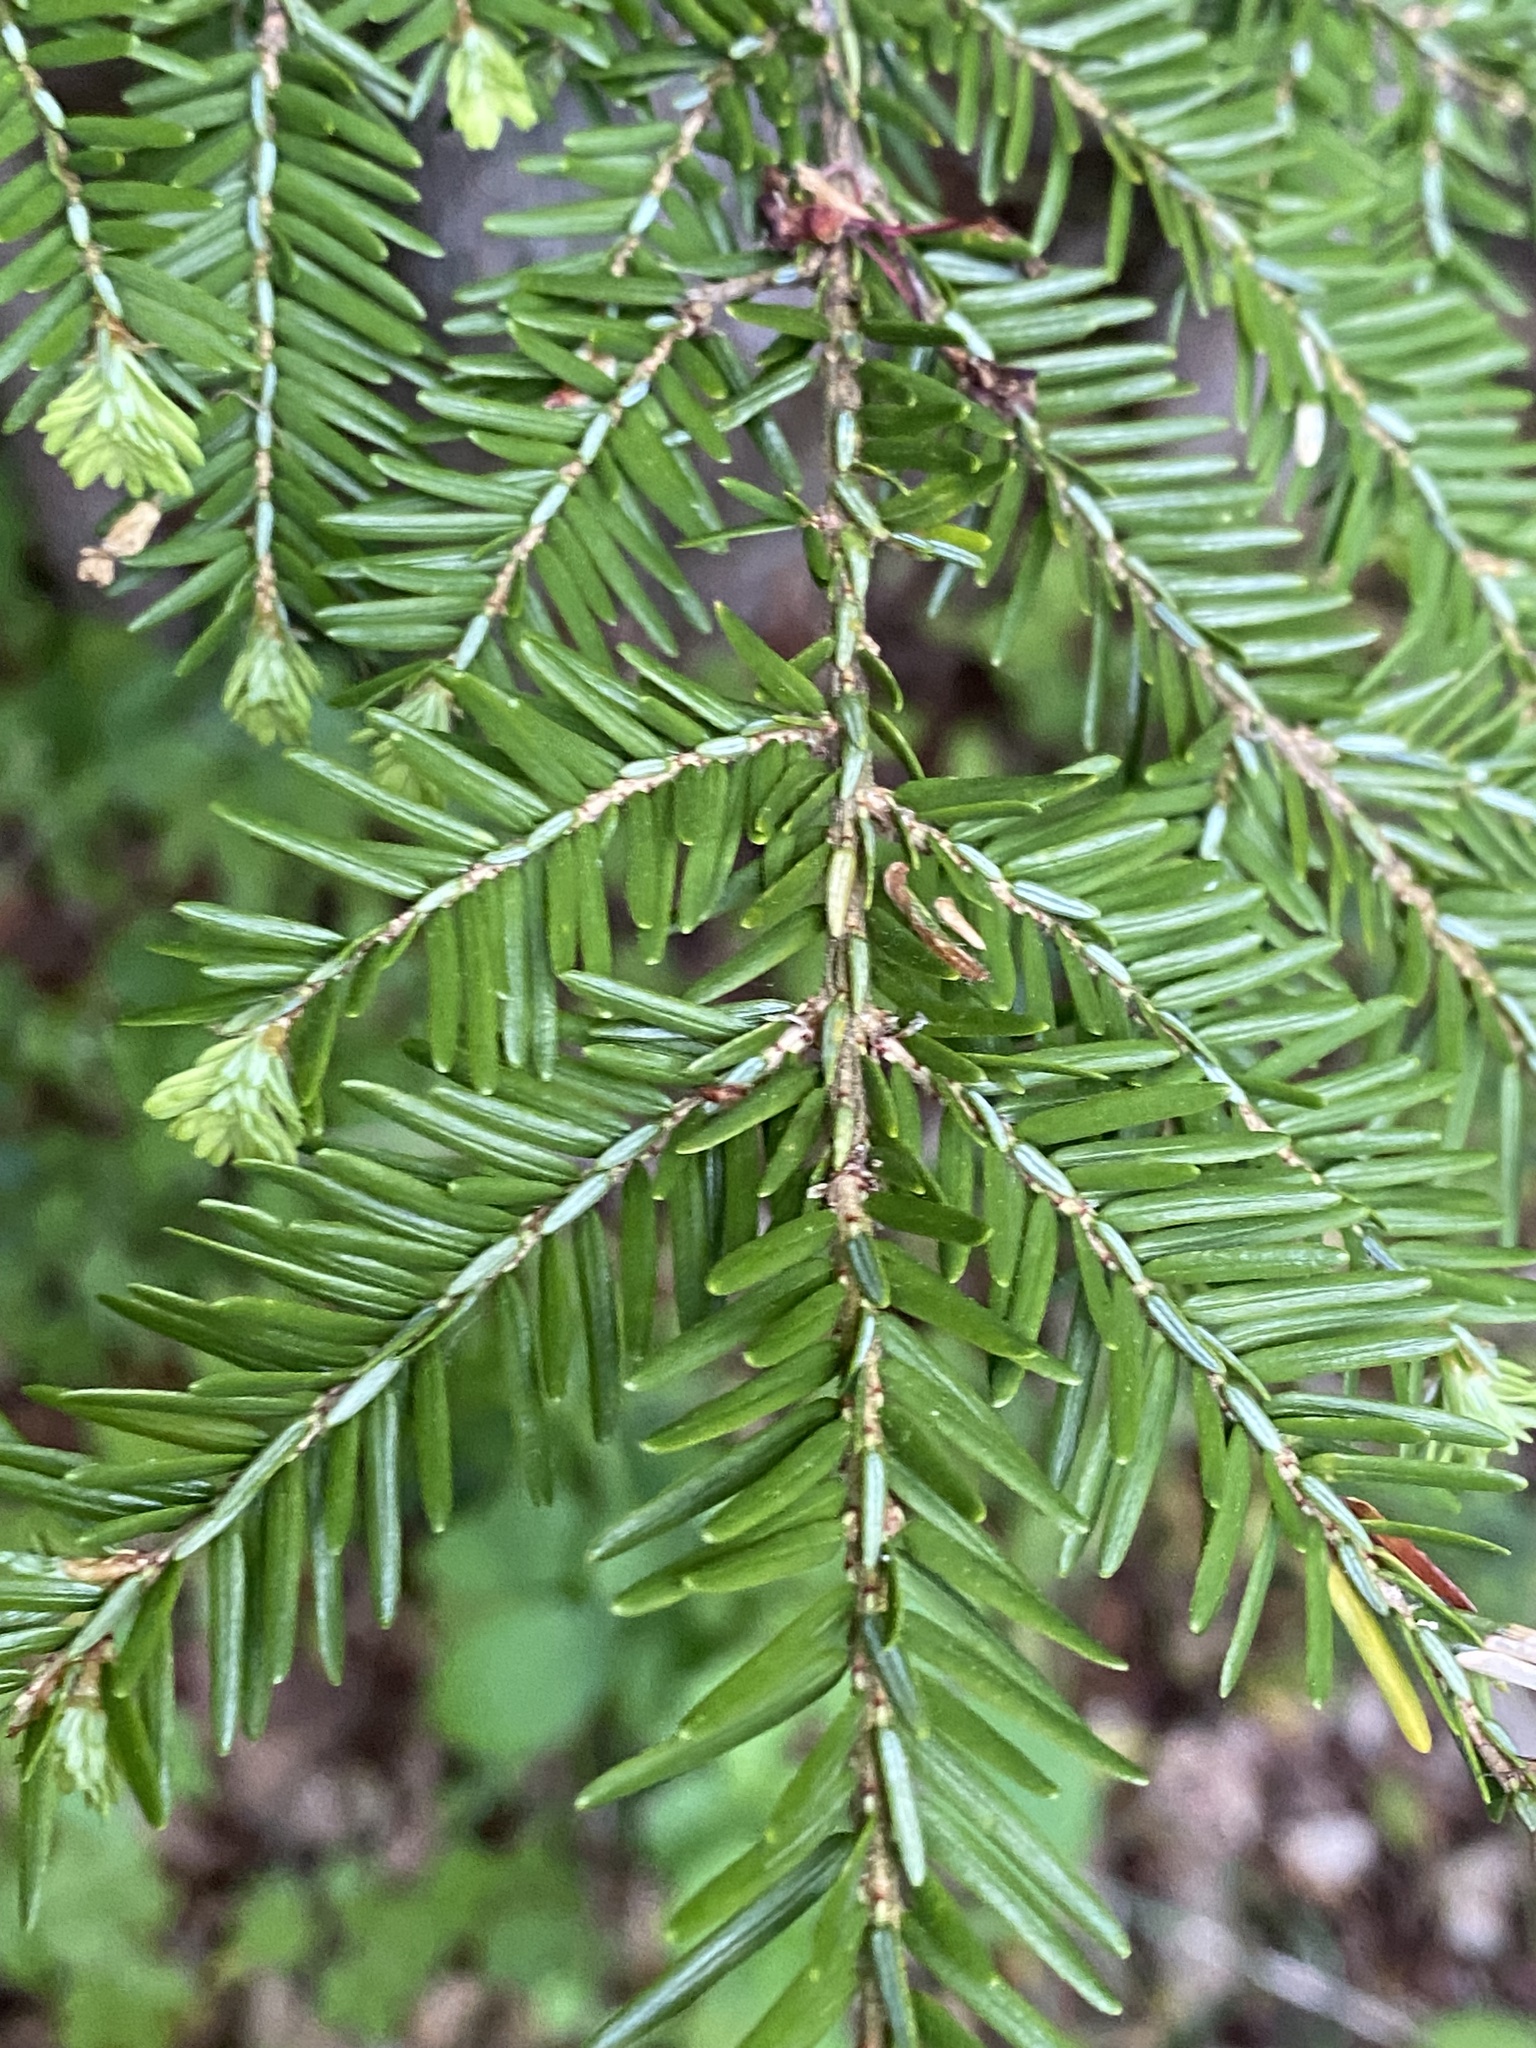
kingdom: Plantae
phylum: Tracheophyta
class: Pinopsida
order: Pinales
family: Pinaceae
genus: Tsuga
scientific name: Tsuga canadensis
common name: Eastern hemlock
